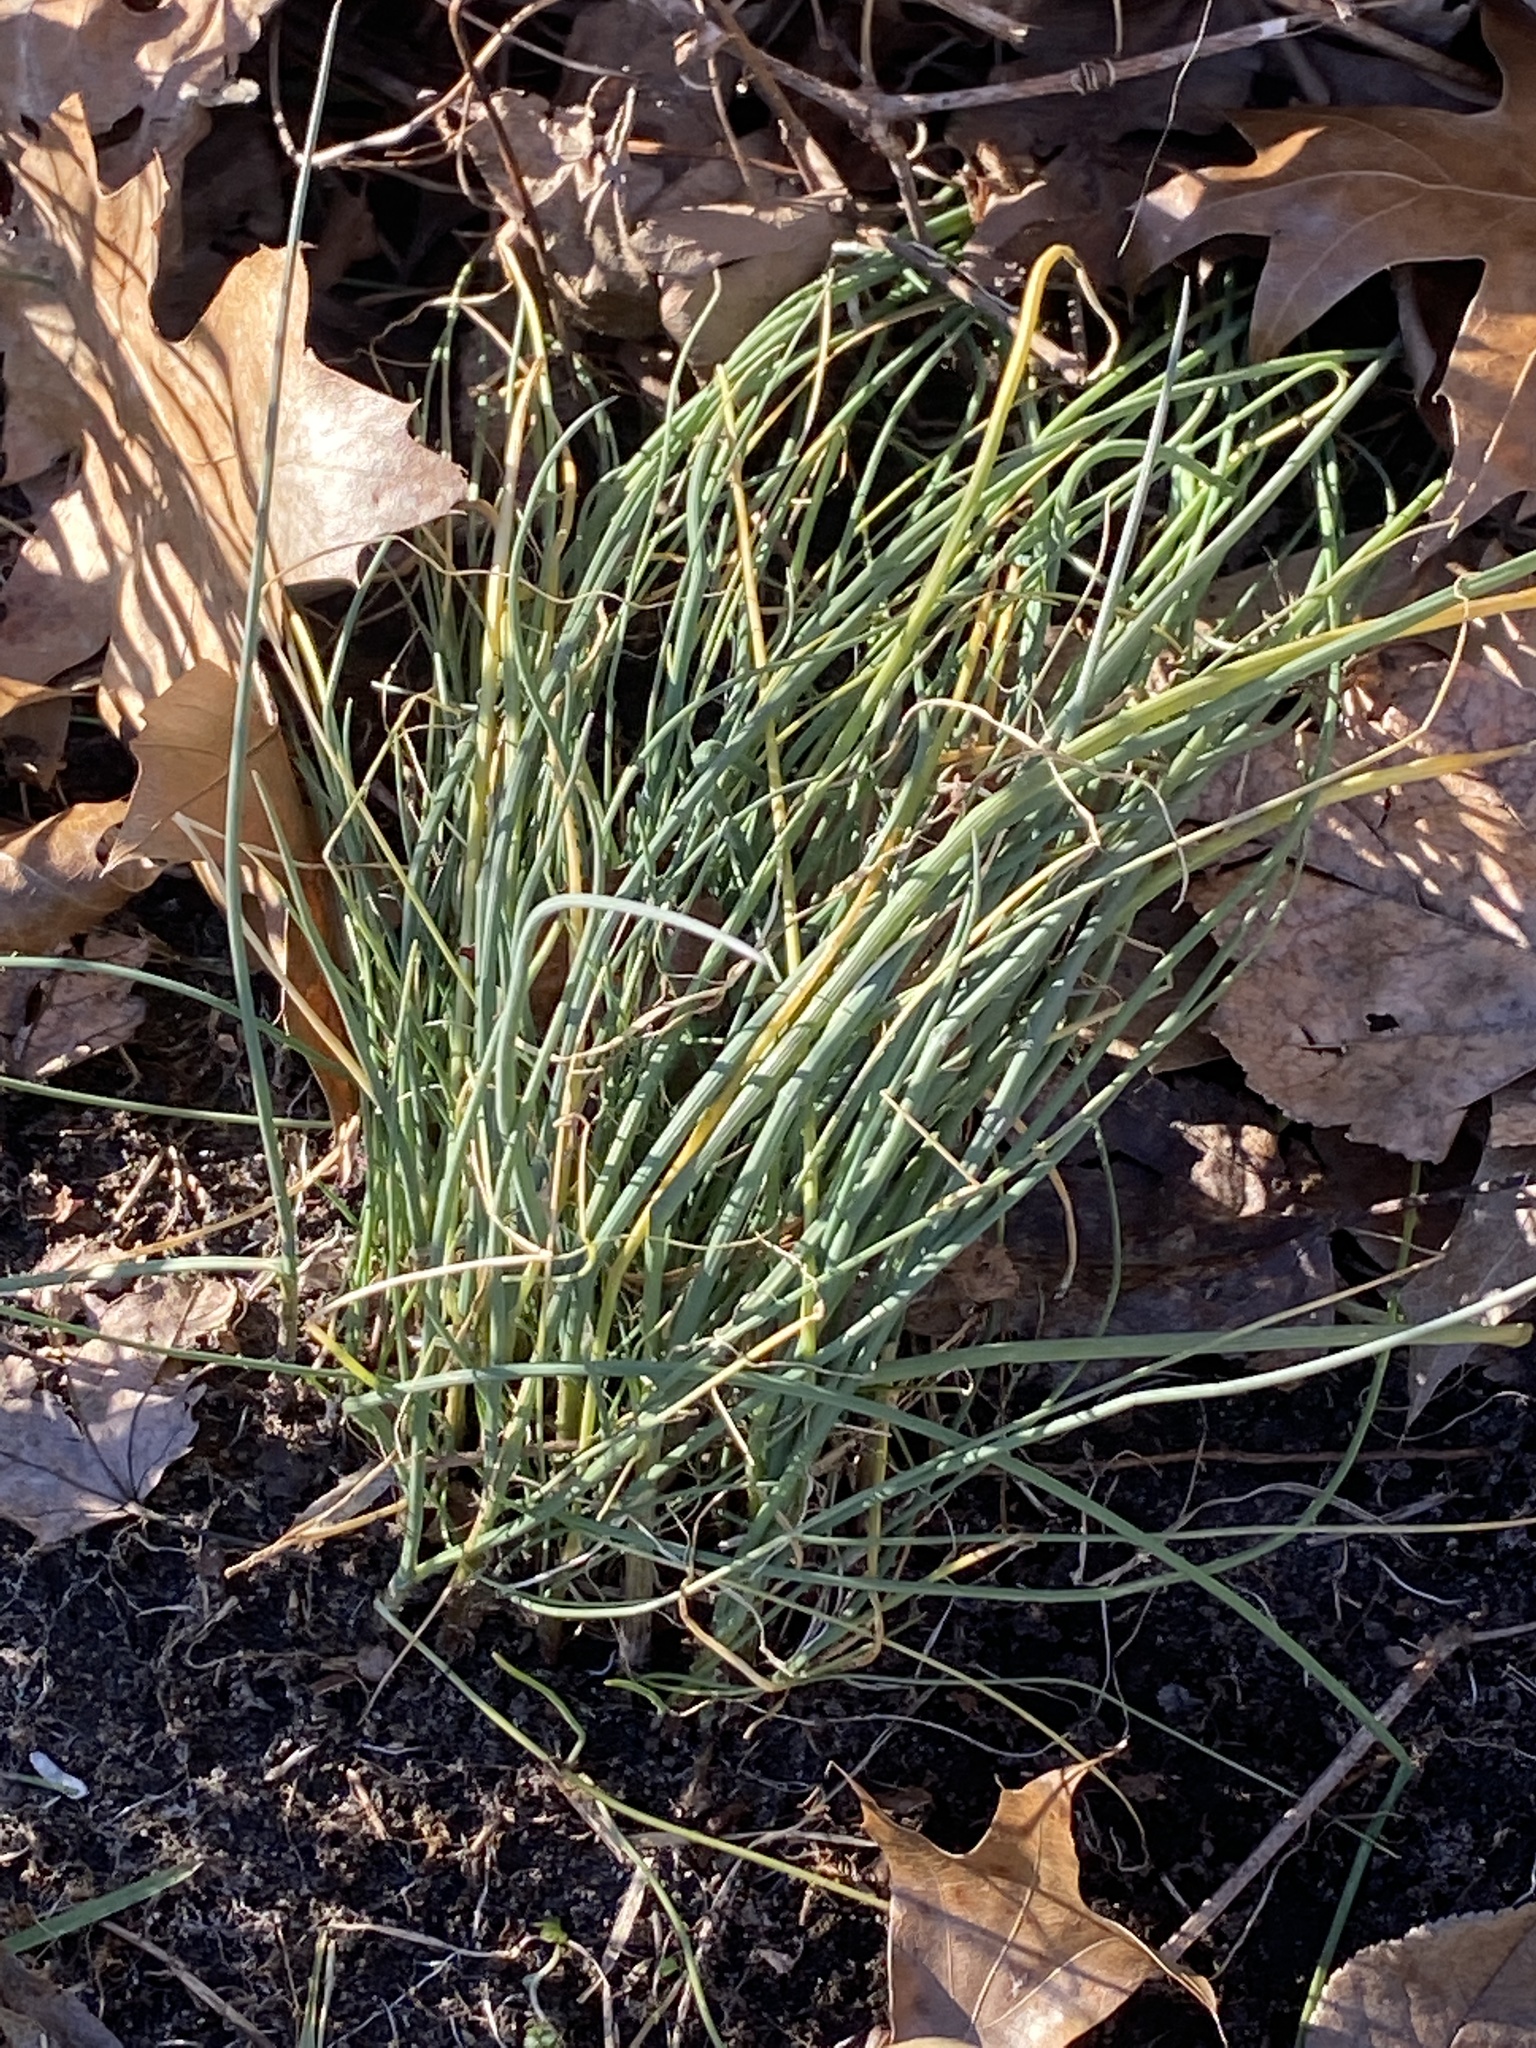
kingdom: Plantae
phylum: Tracheophyta
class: Liliopsida
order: Asparagales
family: Amaryllidaceae
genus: Allium
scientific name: Allium vineale
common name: Crow garlic
